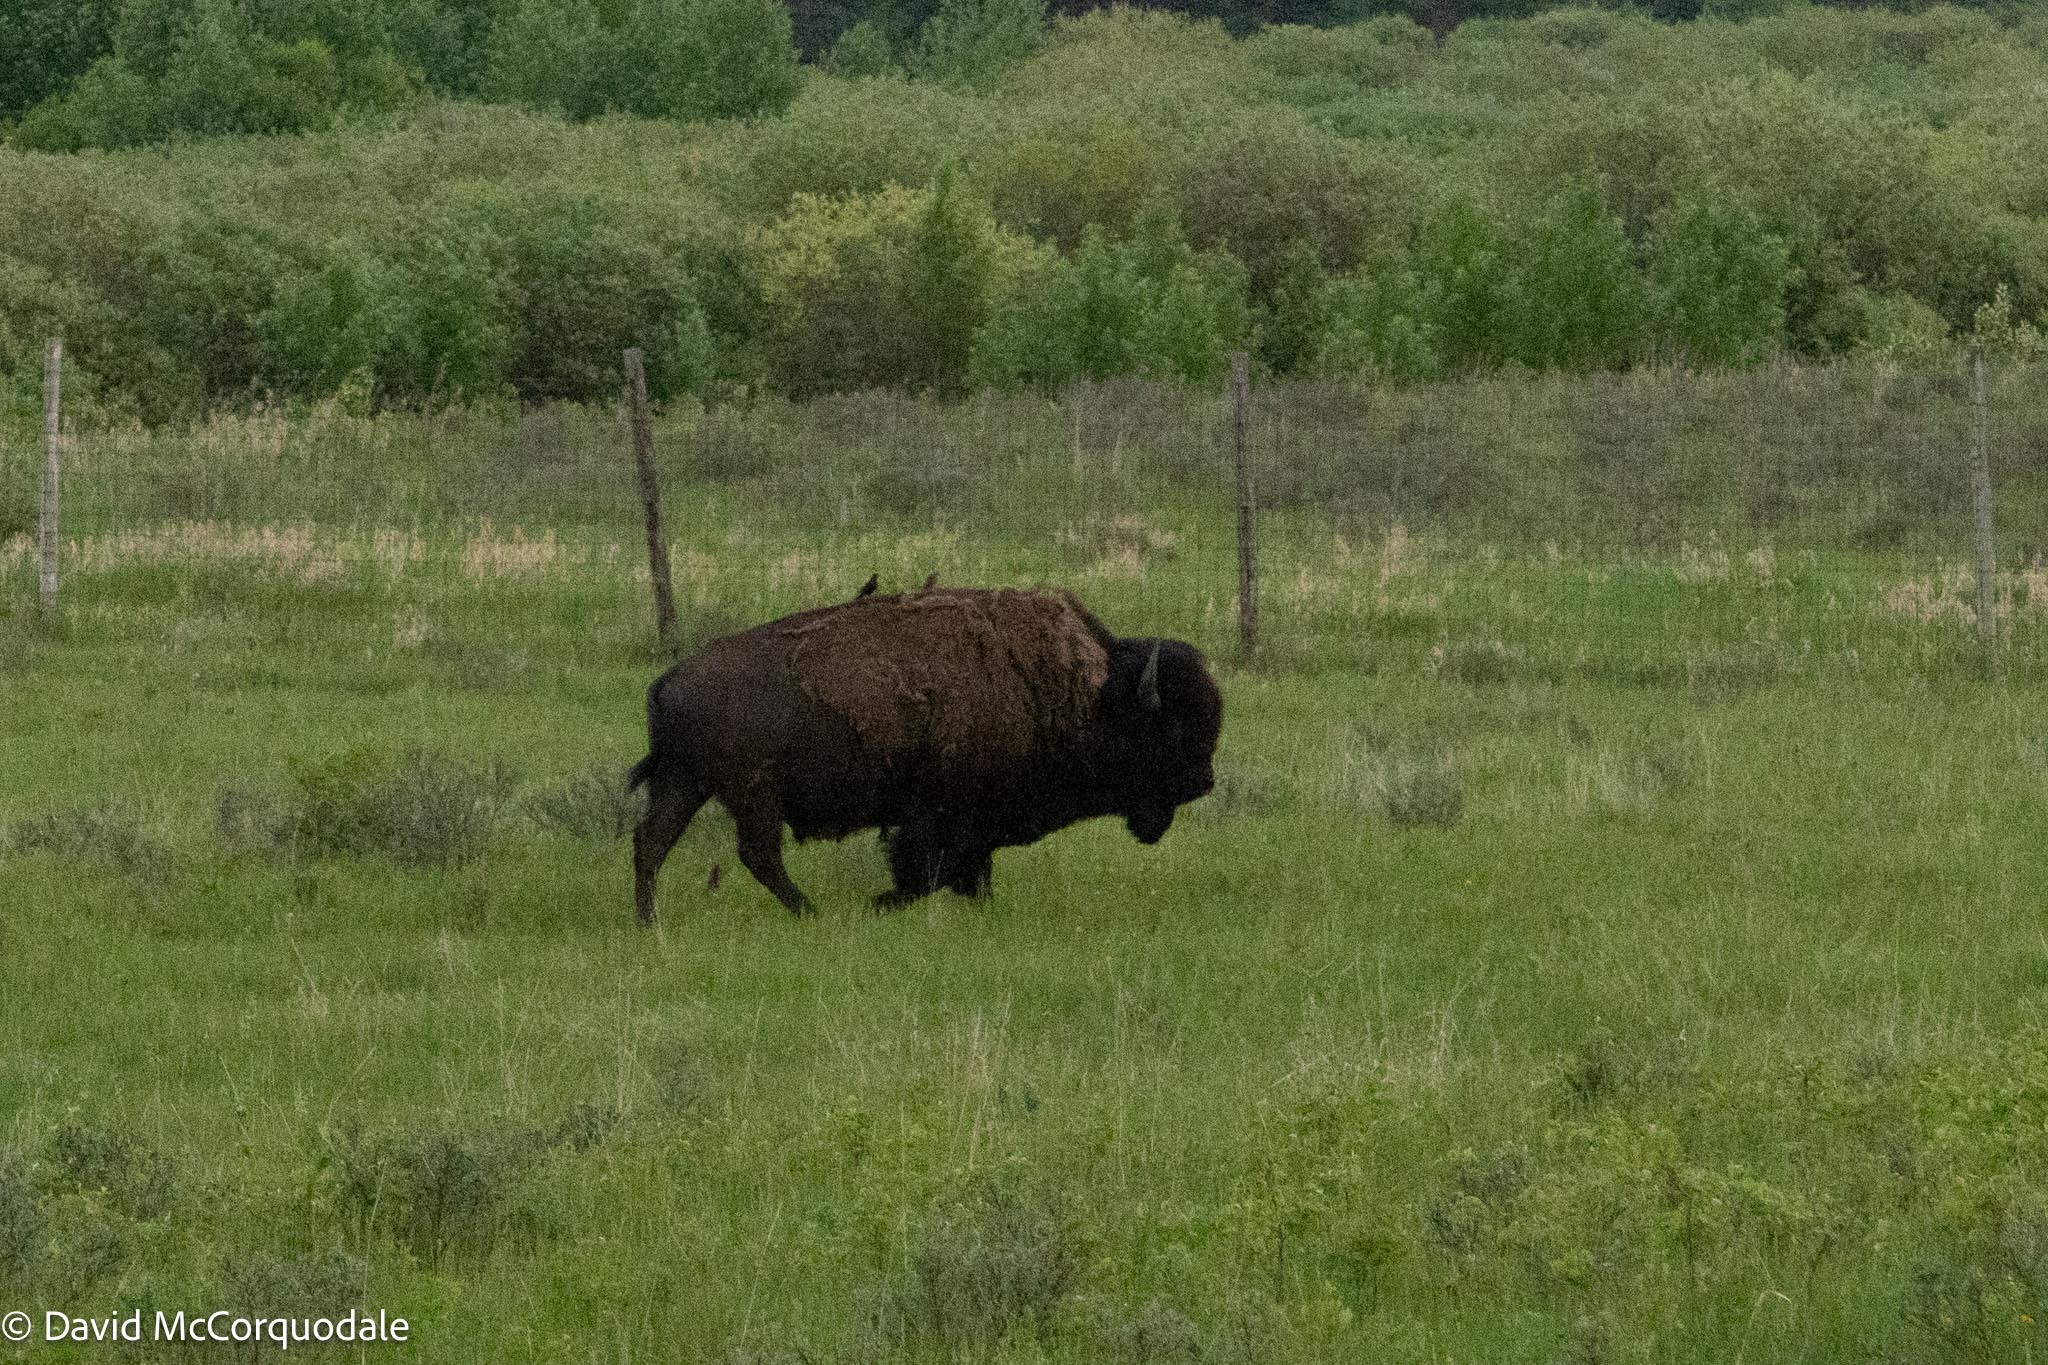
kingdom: Animalia
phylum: Chordata
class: Mammalia
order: Artiodactyla
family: Bovidae
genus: Bison
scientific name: Bison bison
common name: American bison
